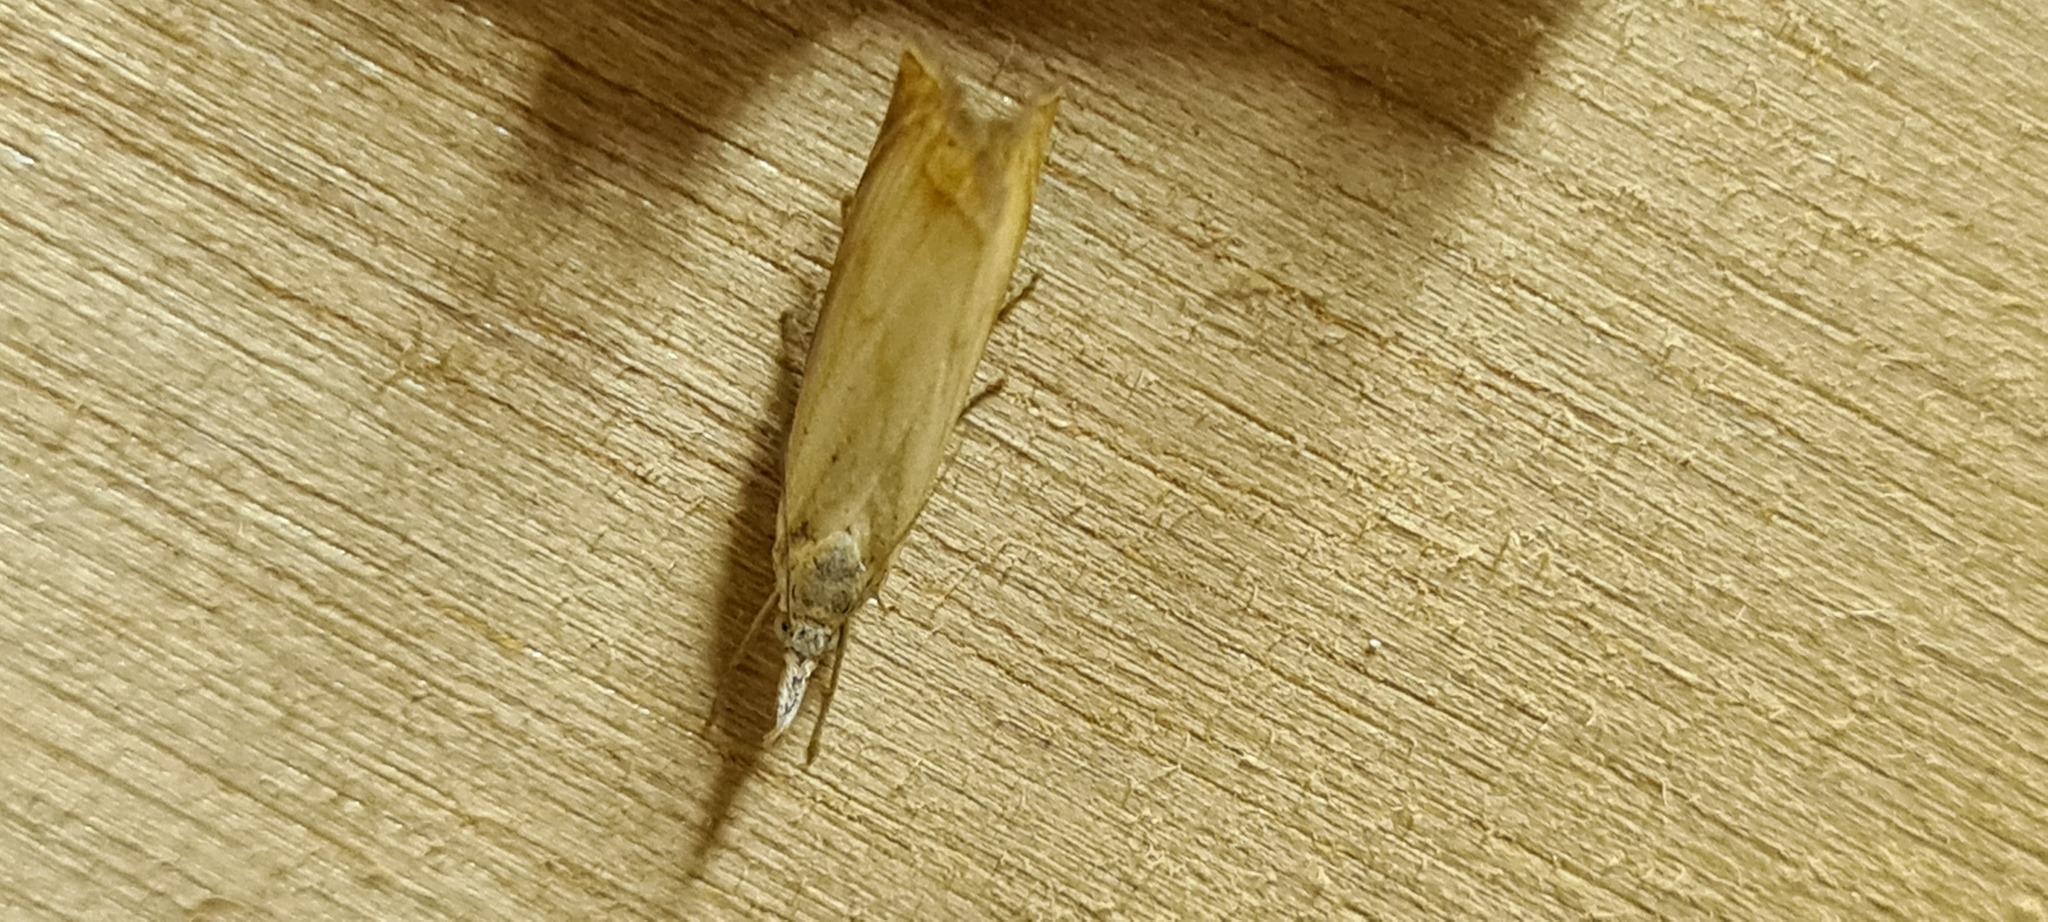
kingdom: Animalia
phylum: Arthropoda
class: Insecta
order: Lepidoptera
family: Crambidae
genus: Chrysoteuchia
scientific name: Chrysoteuchia culmella
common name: Garden grass-veneer
